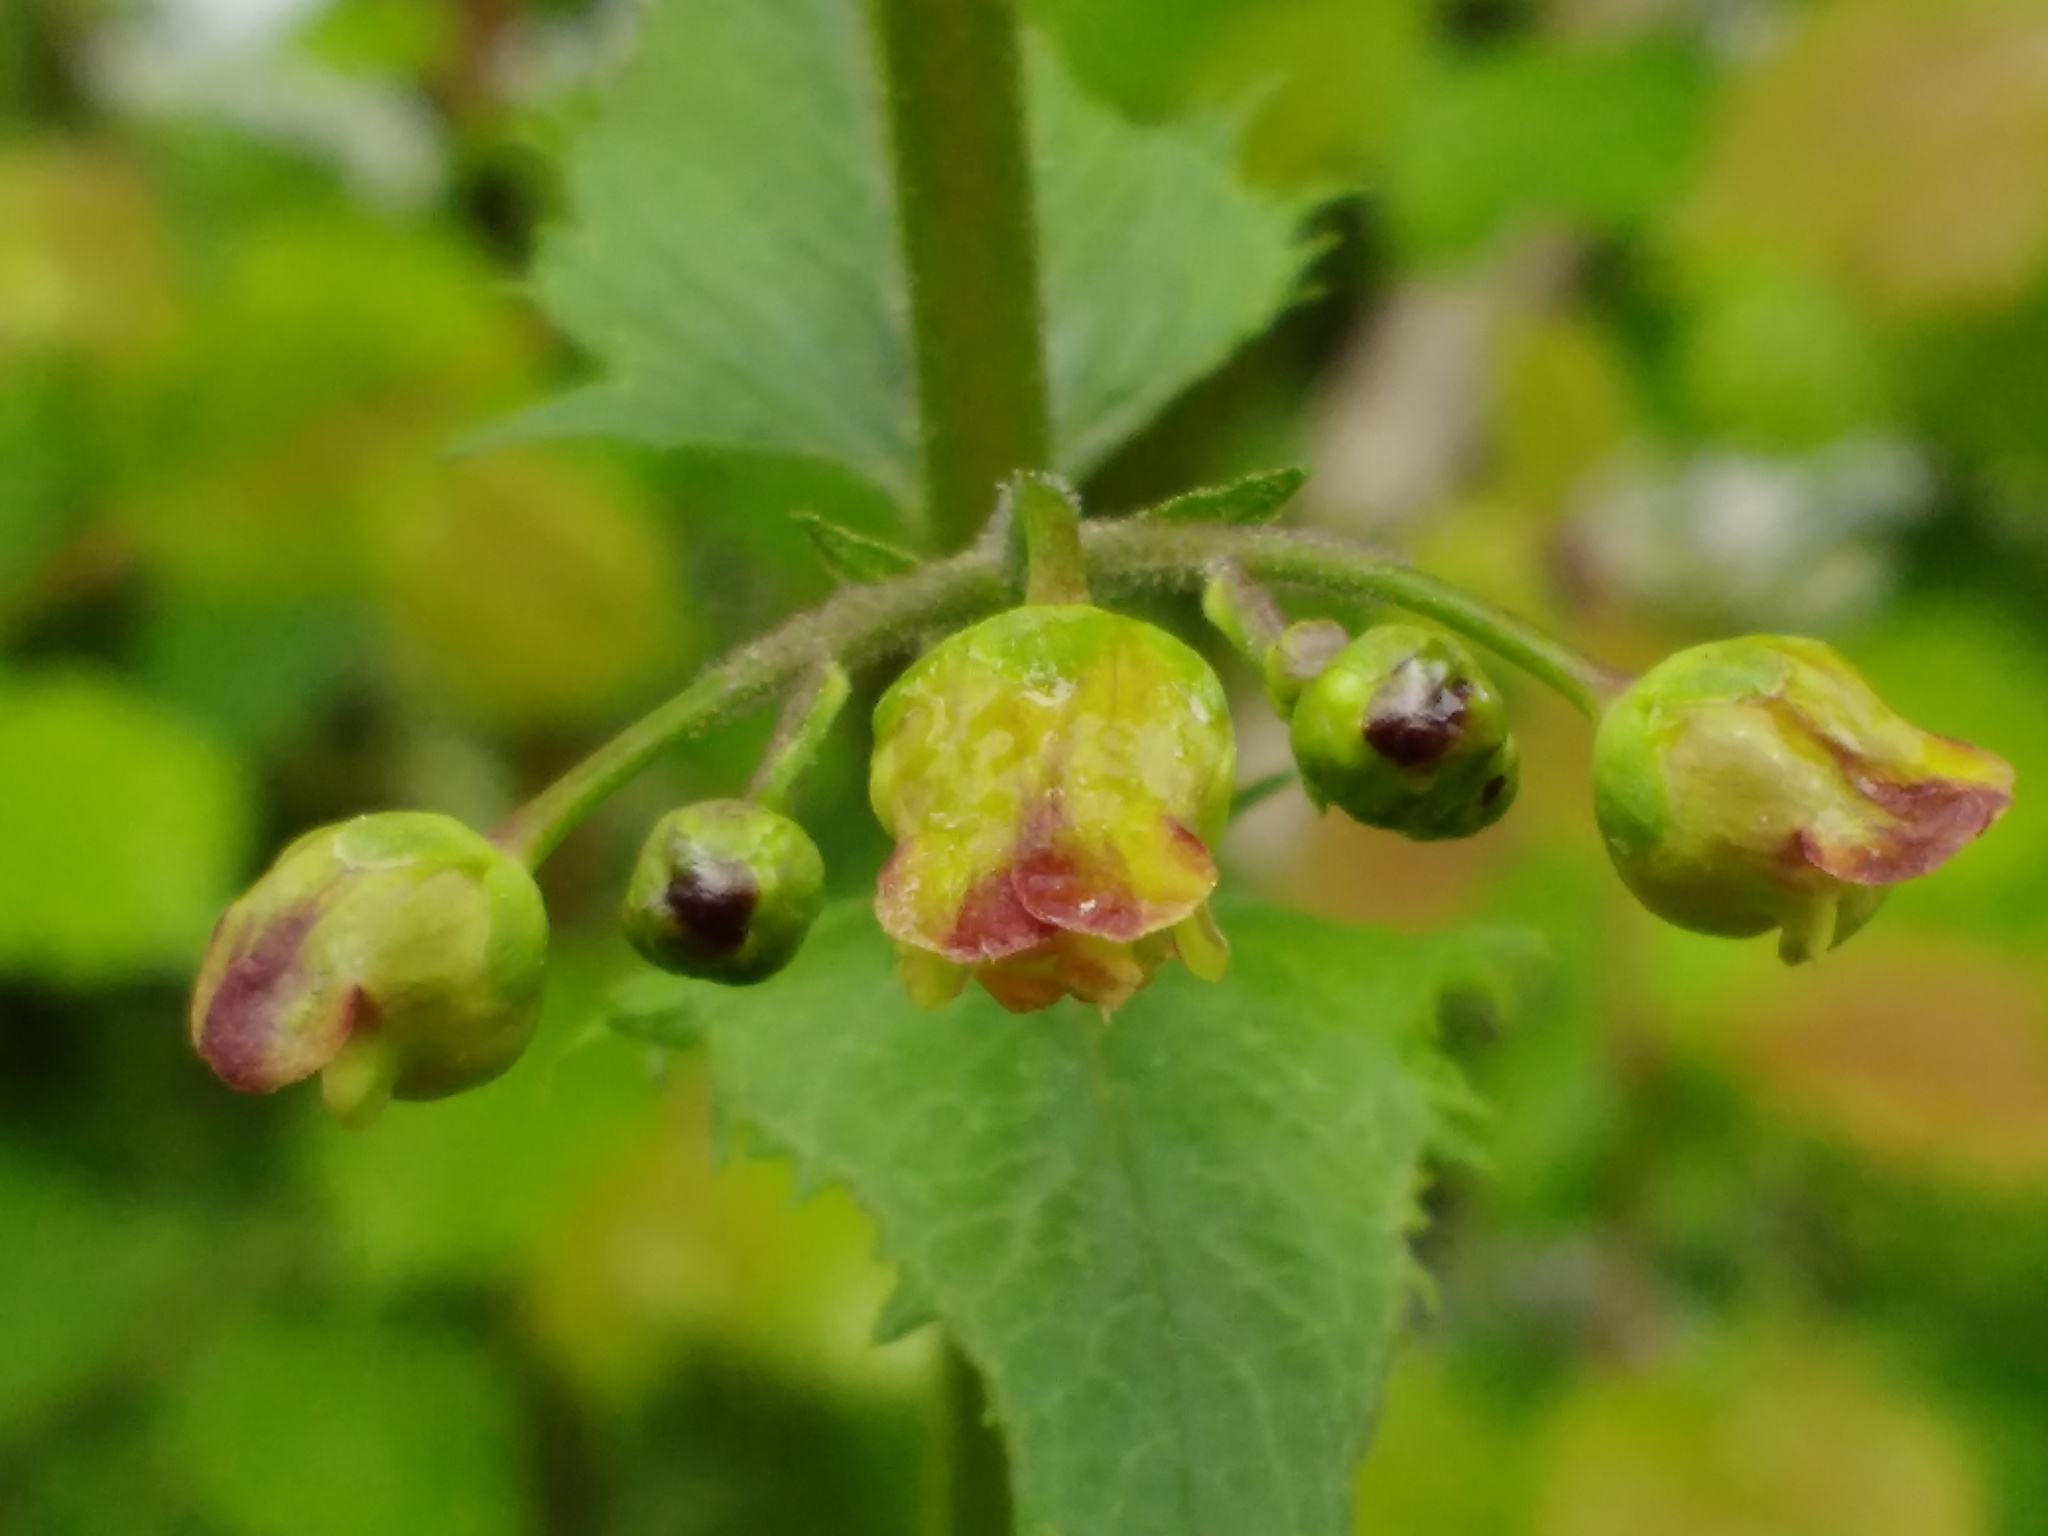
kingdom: Plantae
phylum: Tracheophyta
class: Magnoliopsida
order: Lamiales
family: Scrophulariaceae
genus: Scrophularia
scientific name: Scrophularia nodosa
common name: Common figwort
